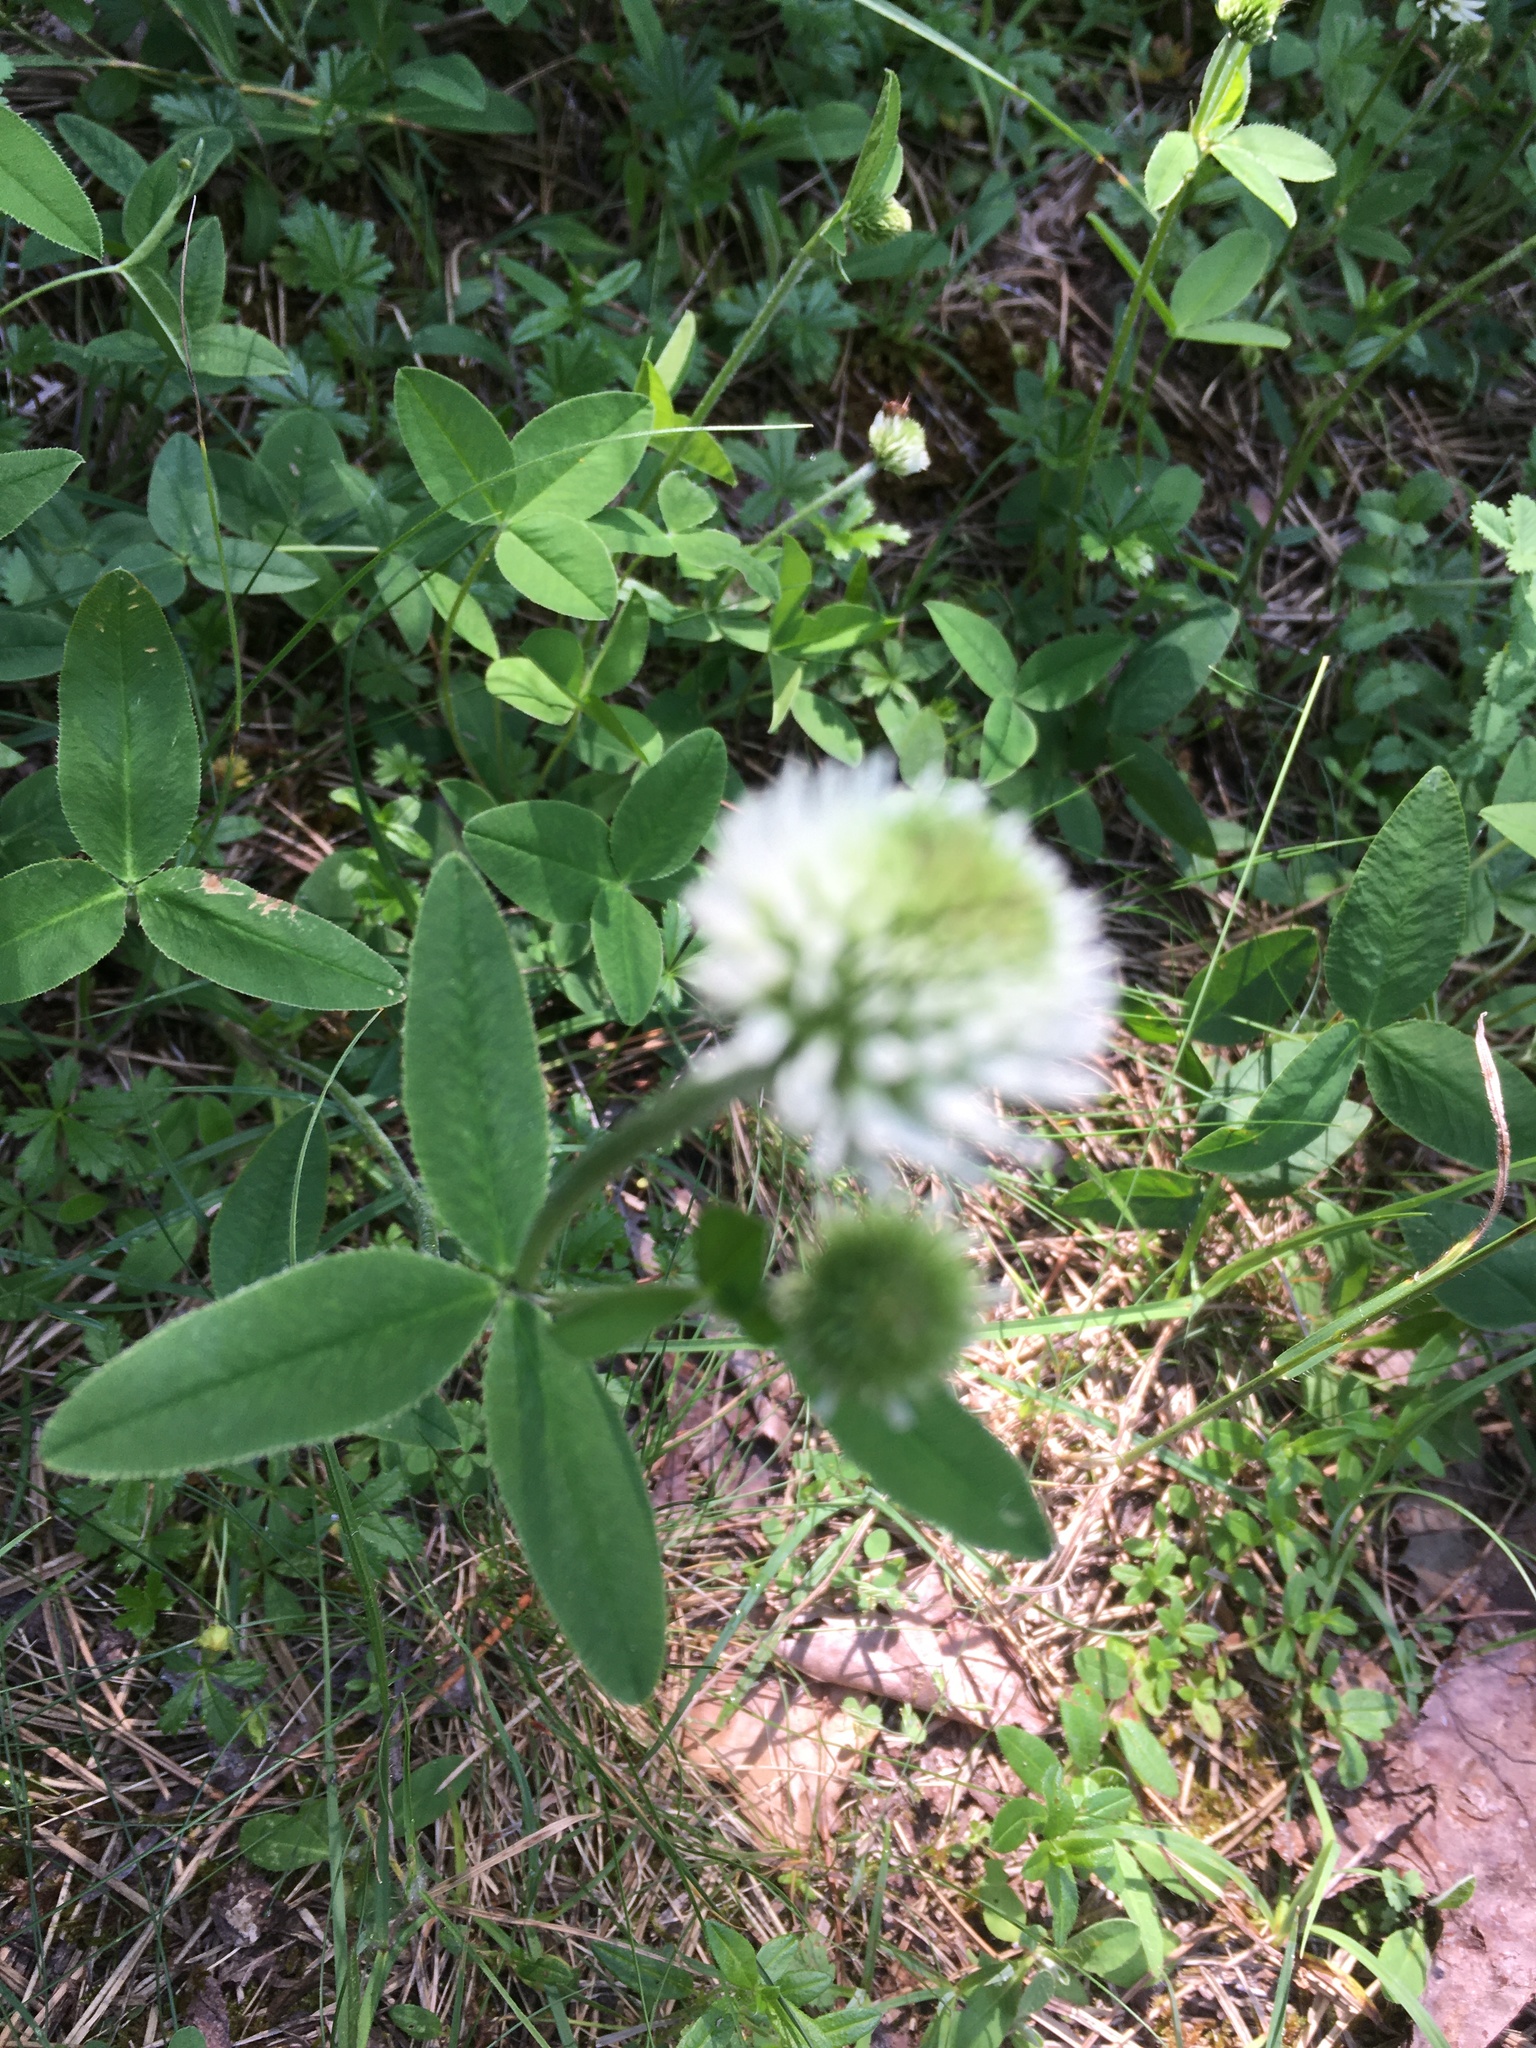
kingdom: Plantae
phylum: Tracheophyta
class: Magnoliopsida
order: Fabales
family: Fabaceae
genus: Trifolium
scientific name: Trifolium montanum
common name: Mountain clover
